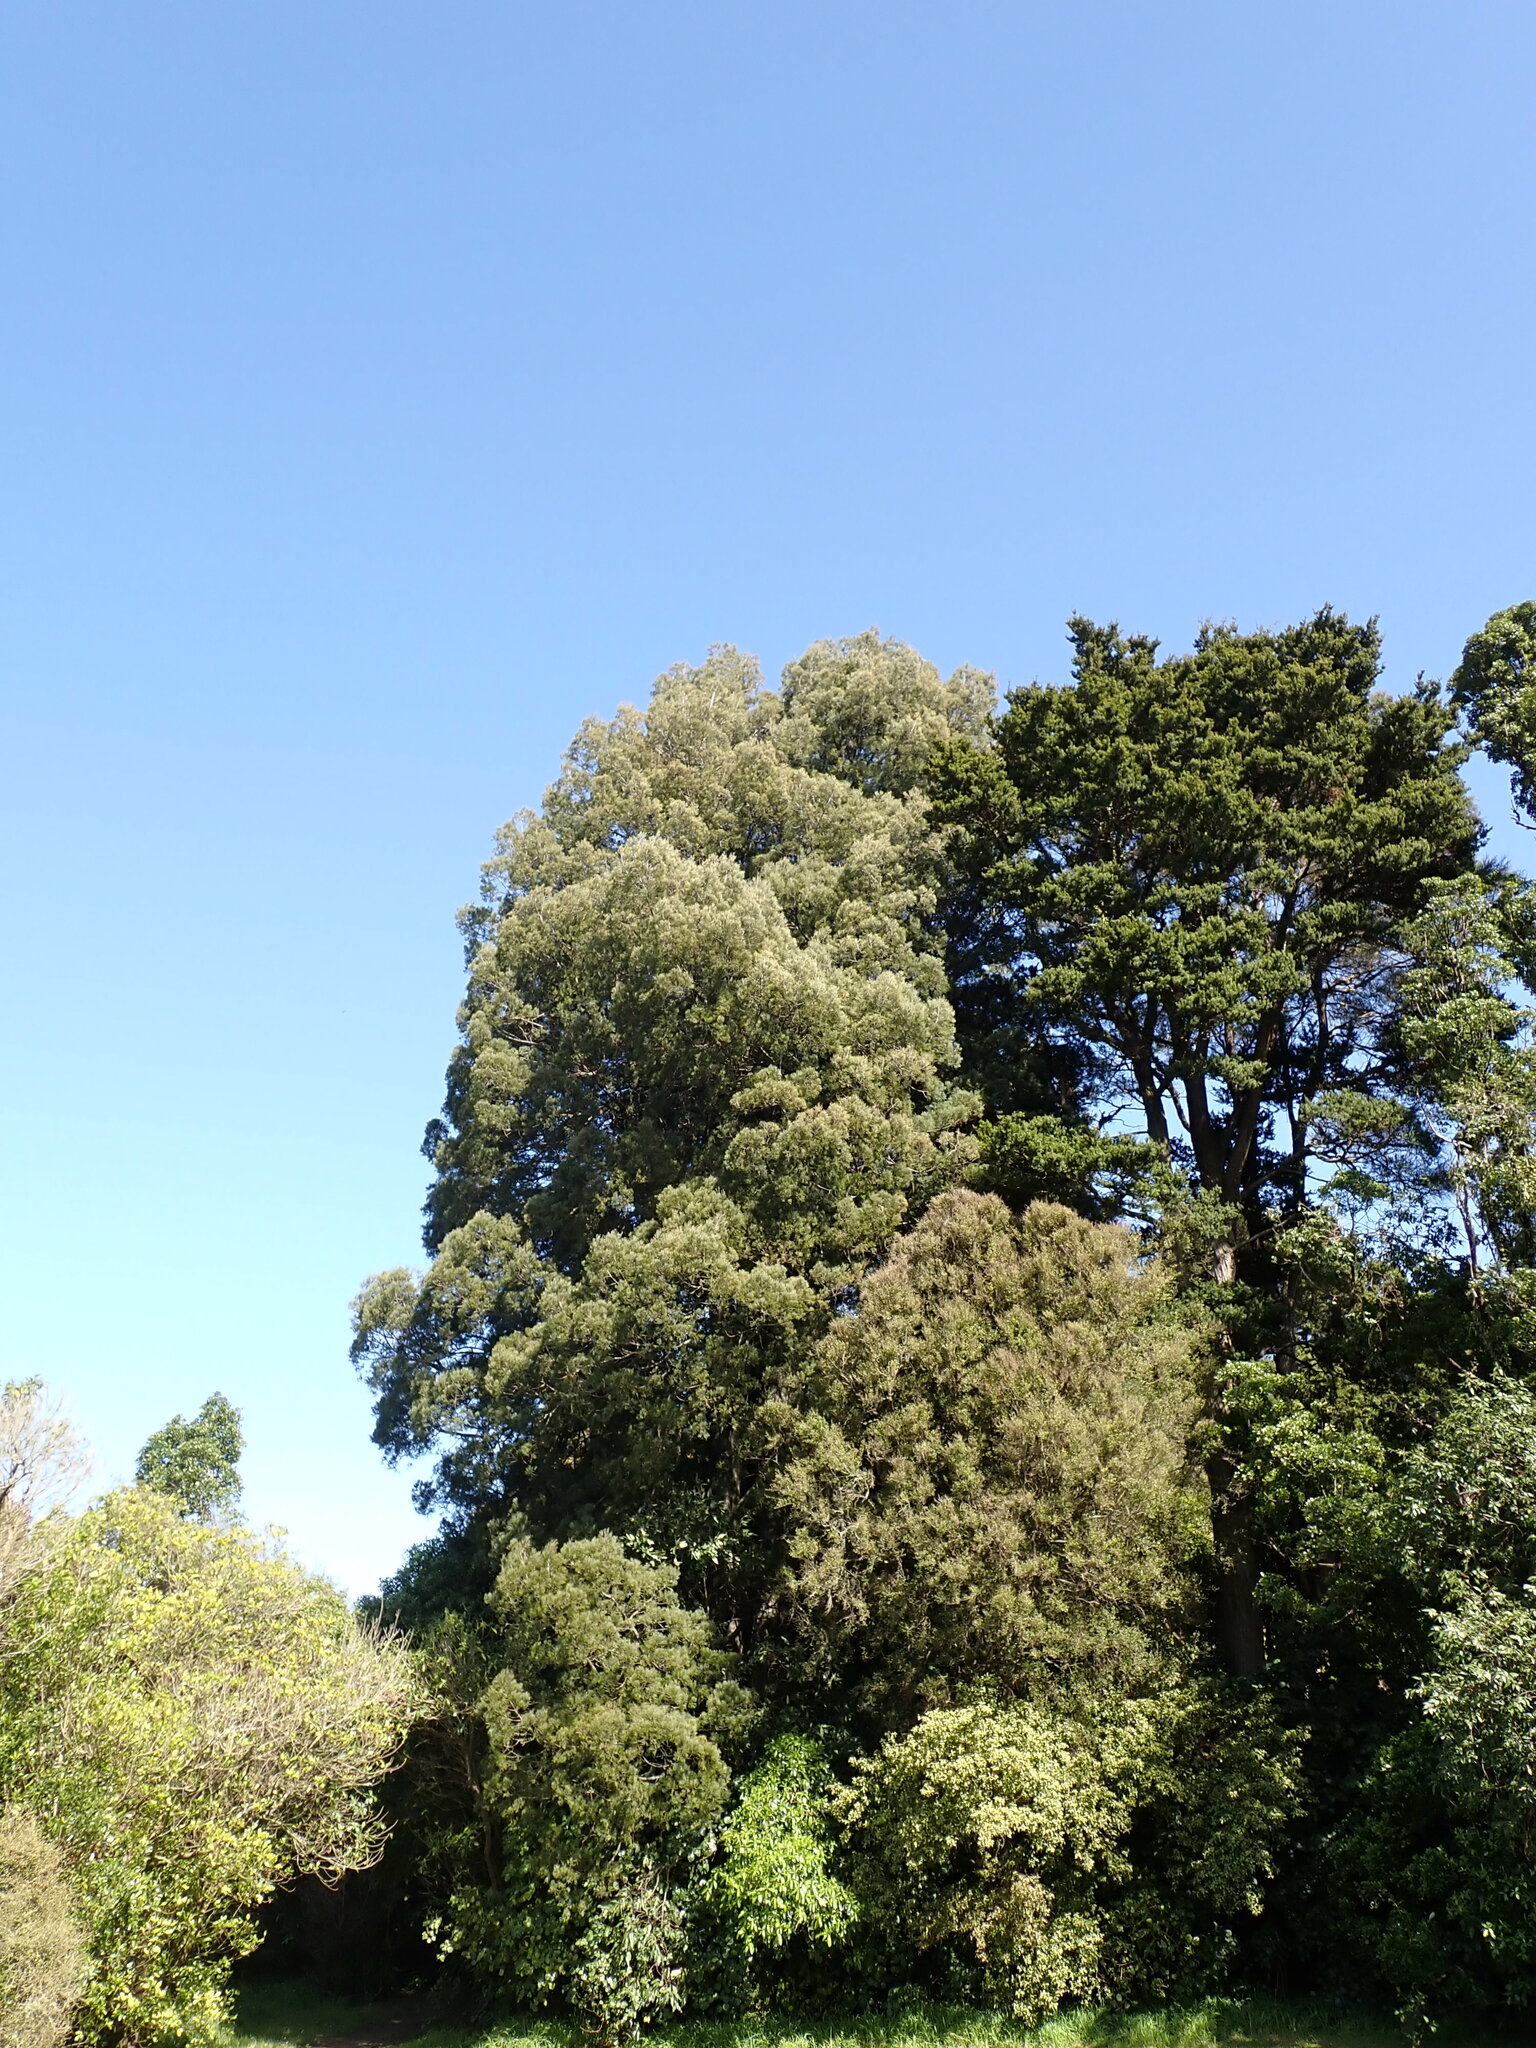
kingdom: Plantae
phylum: Tracheophyta
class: Pinopsida
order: Pinales
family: Podocarpaceae
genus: Dacrycarpus
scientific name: Dacrycarpus dacrydioides
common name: White pine
